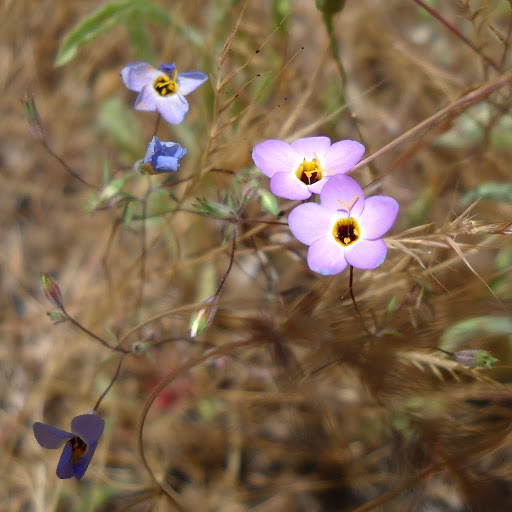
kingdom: Plantae
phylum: Tracheophyta
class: Magnoliopsida
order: Ericales
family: Polemoniaceae
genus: Leptosiphon
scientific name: Leptosiphon ambiguus
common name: Serpentine linanthus
